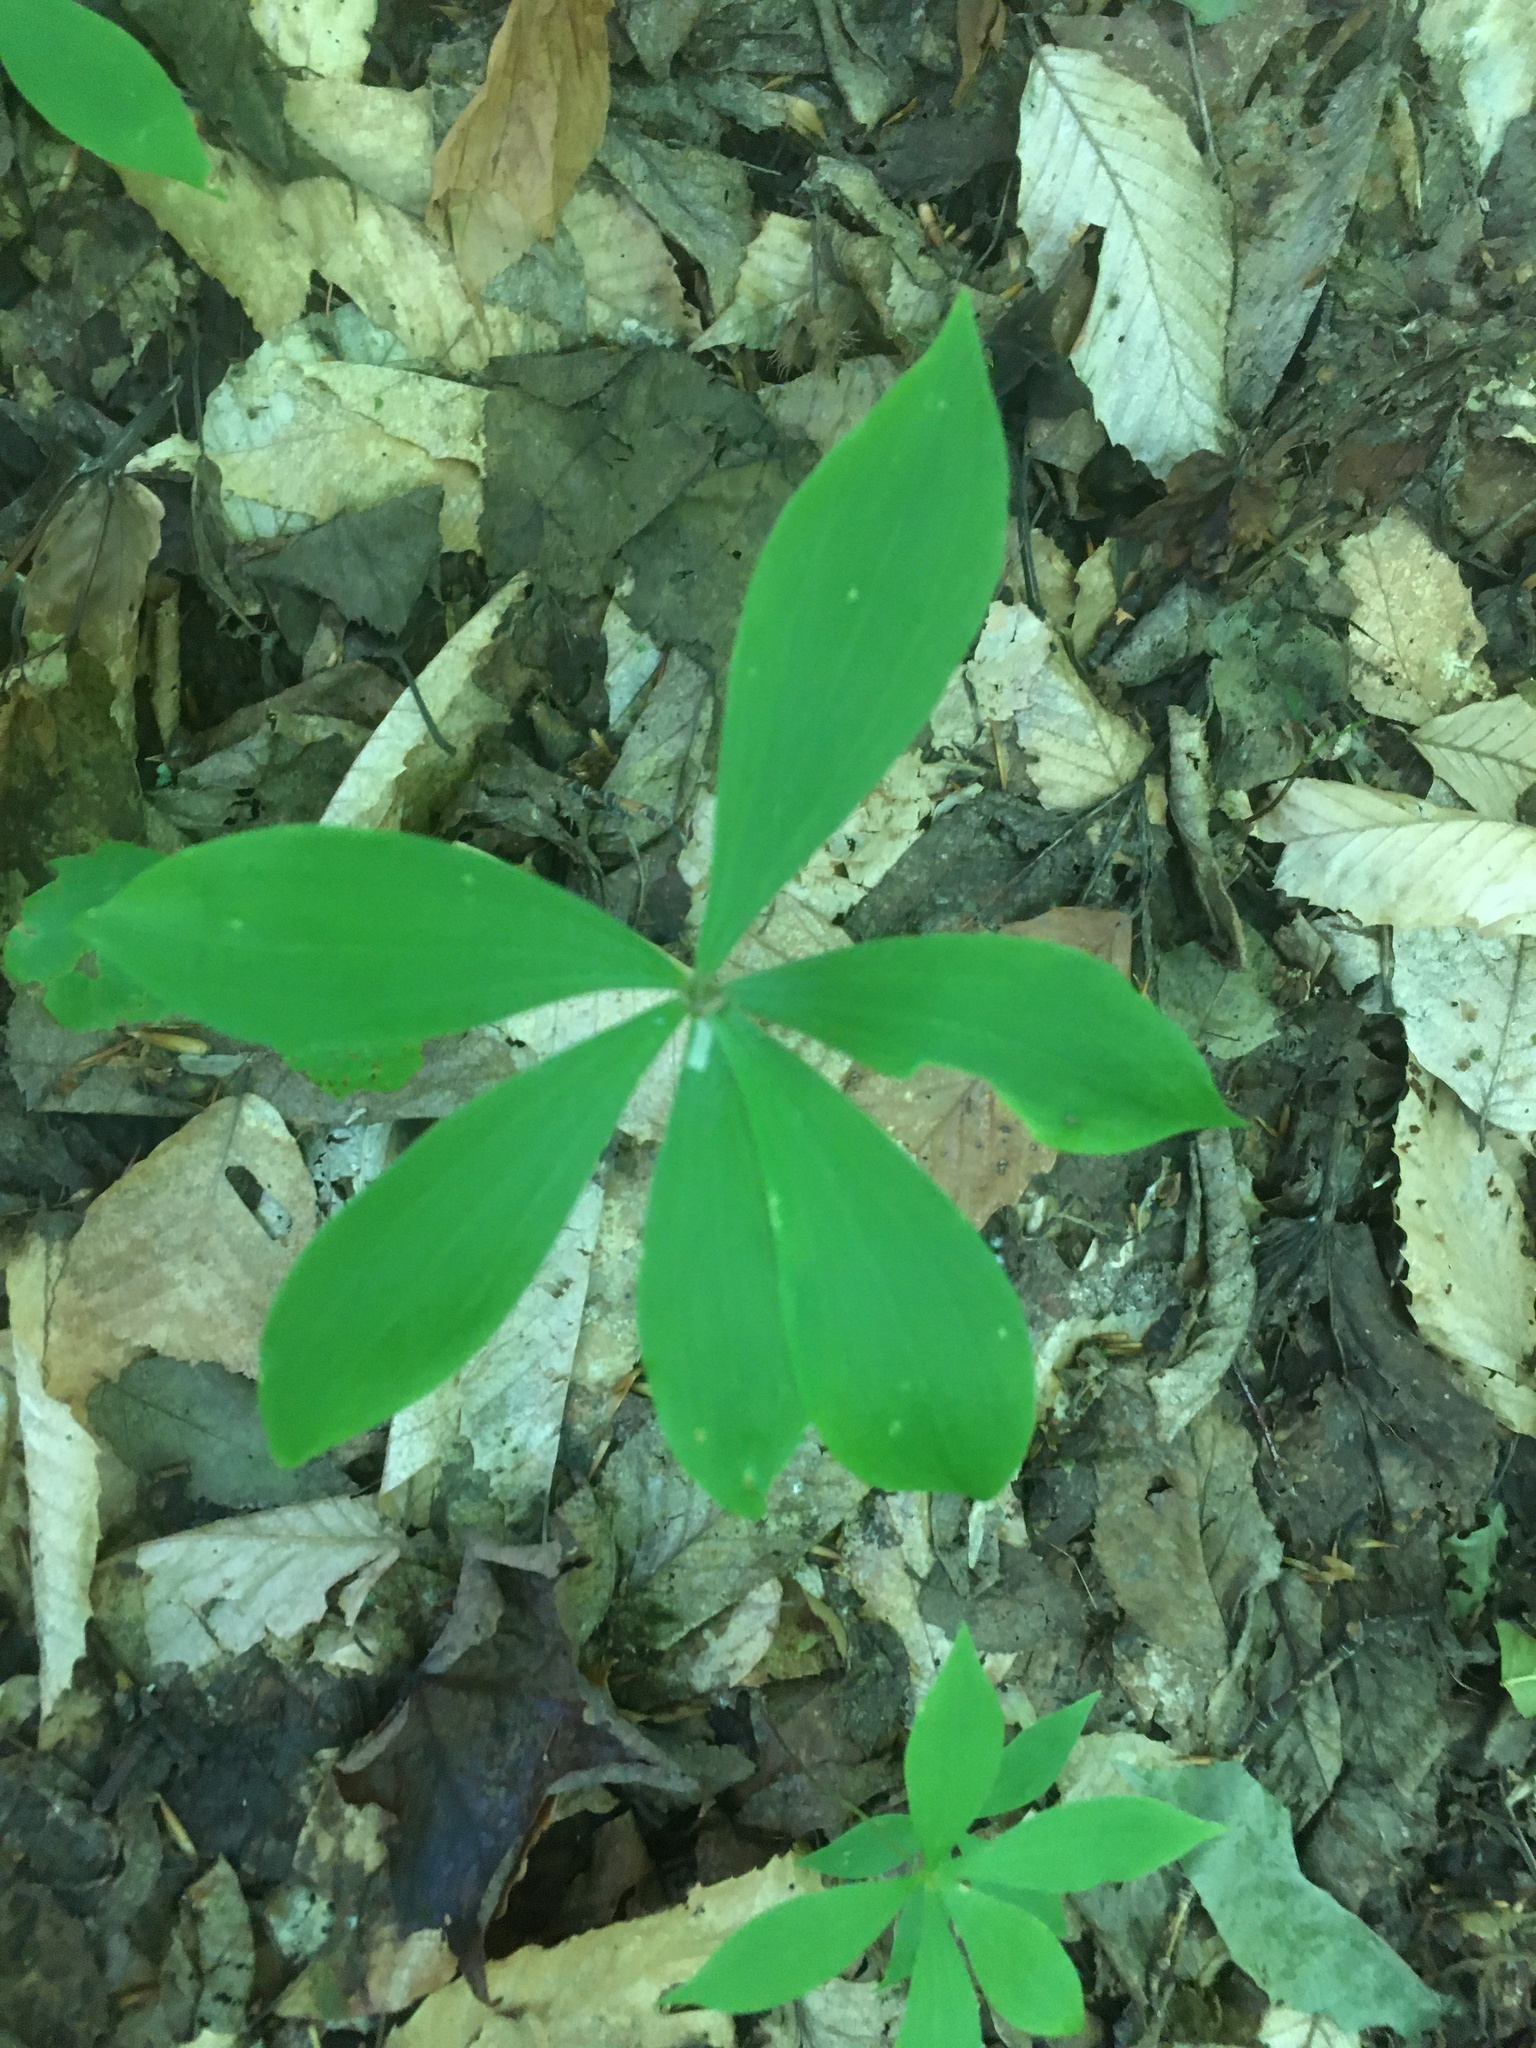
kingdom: Plantae
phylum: Tracheophyta
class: Liliopsida
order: Liliales
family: Liliaceae
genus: Medeola
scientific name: Medeola virginiana
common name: Indian cucumber-root
